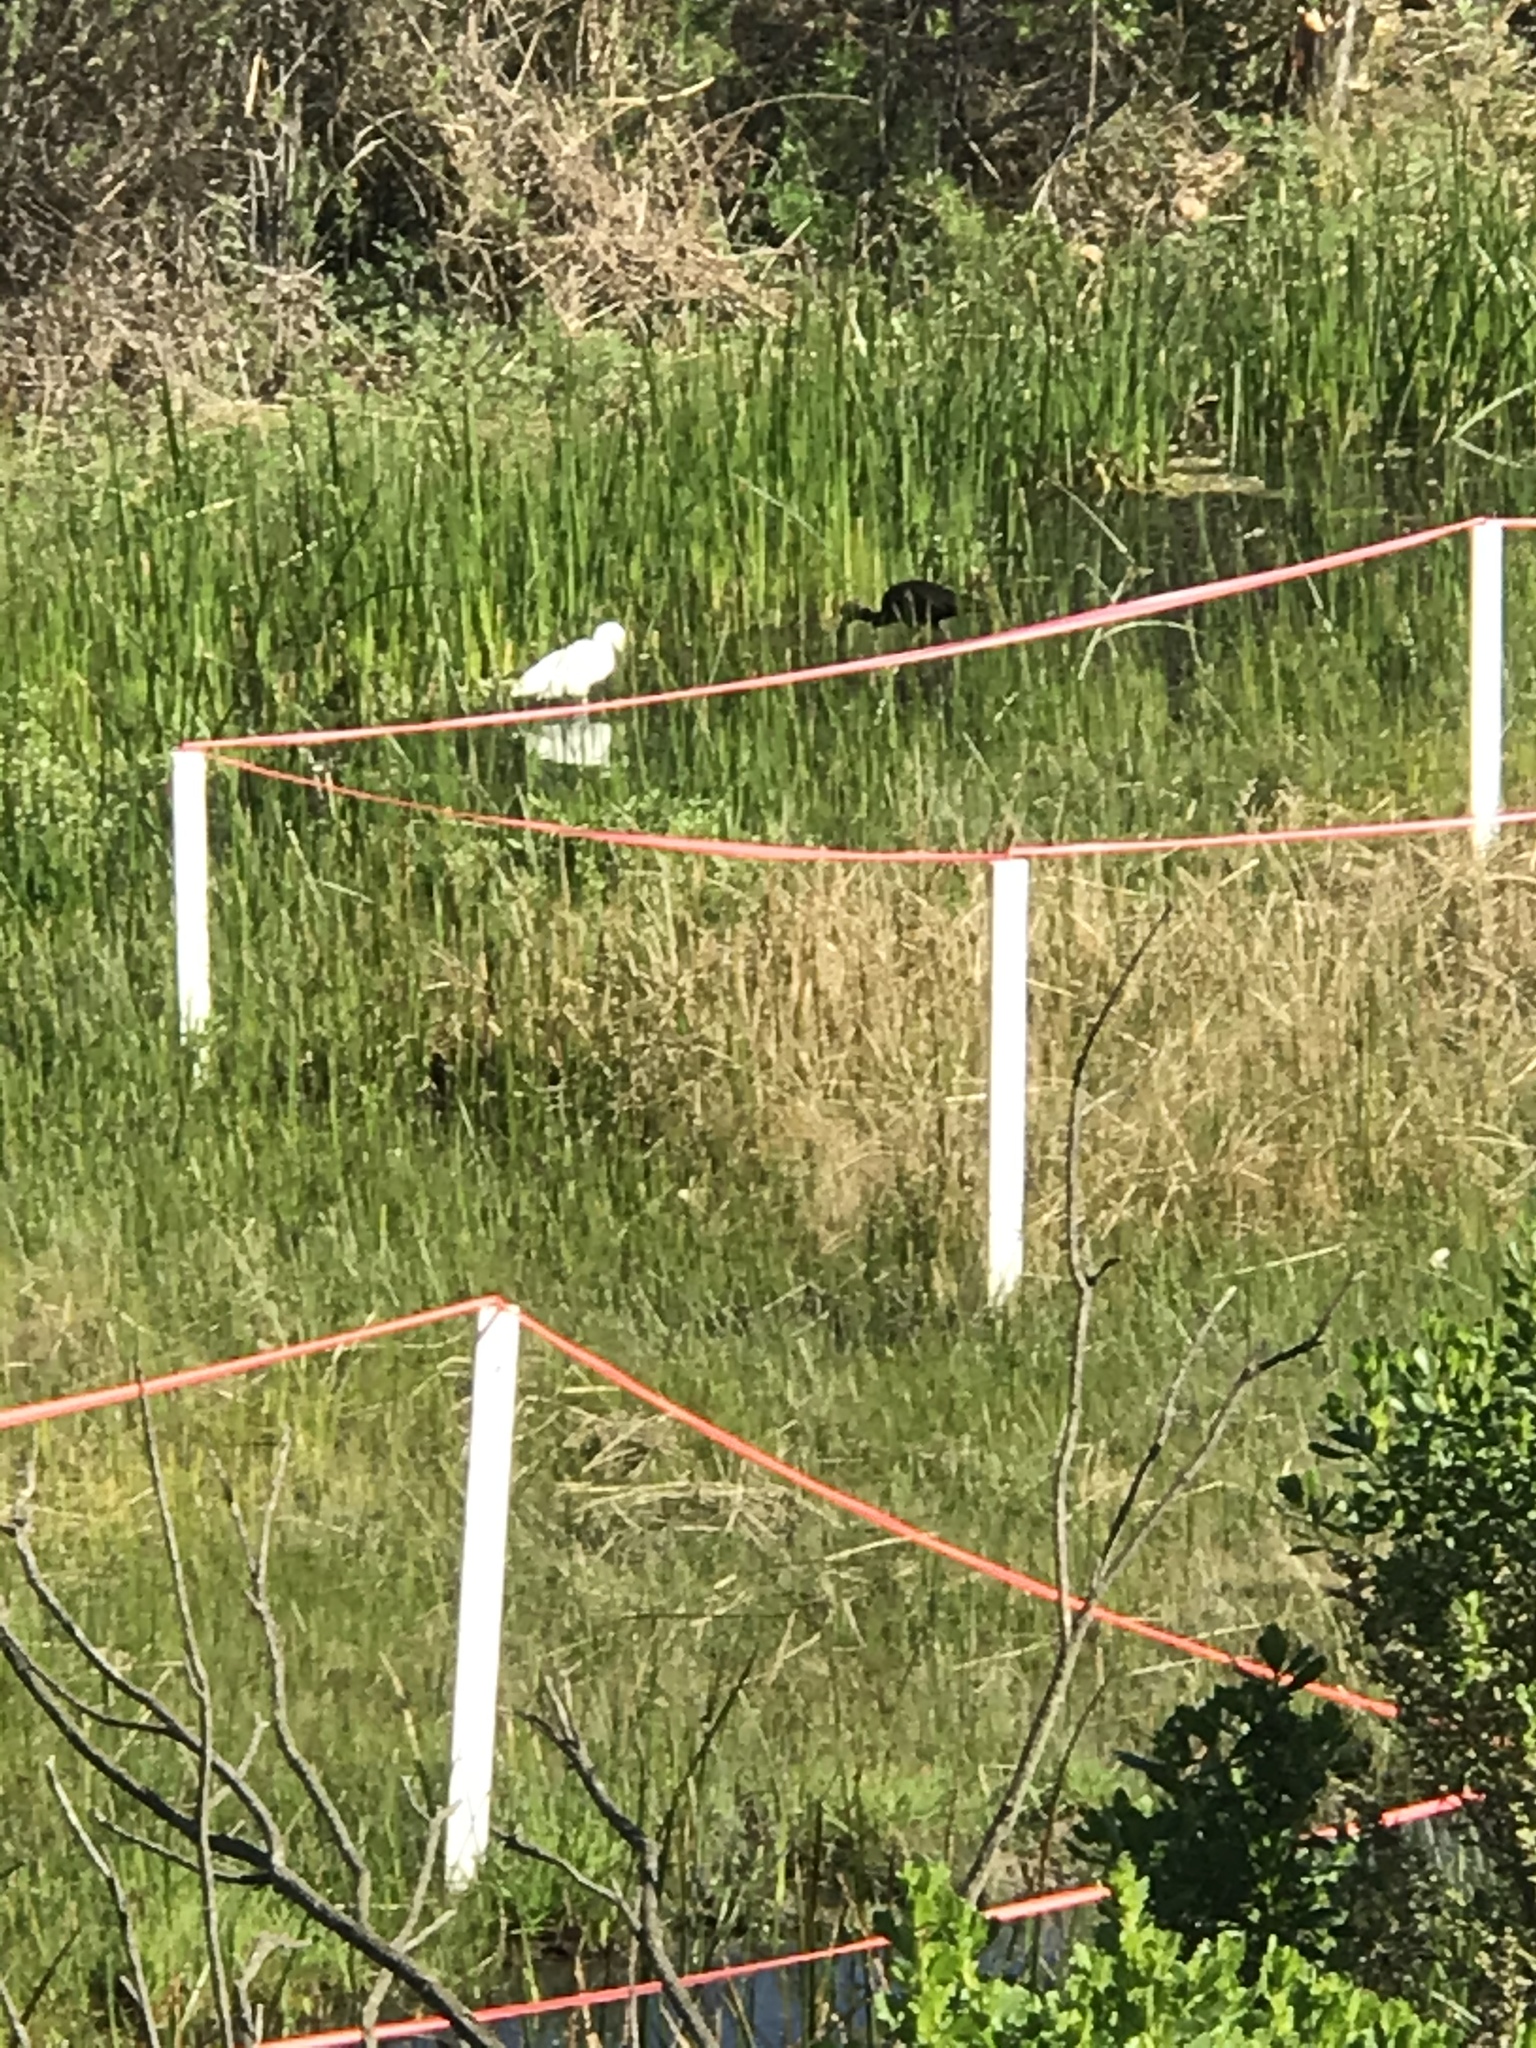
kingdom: Animalia
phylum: Chordata
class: Aves
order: Pelecaniformes
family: Threskiornithidae
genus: Plegadis
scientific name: Plegadis chihi
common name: White-faced ibis
